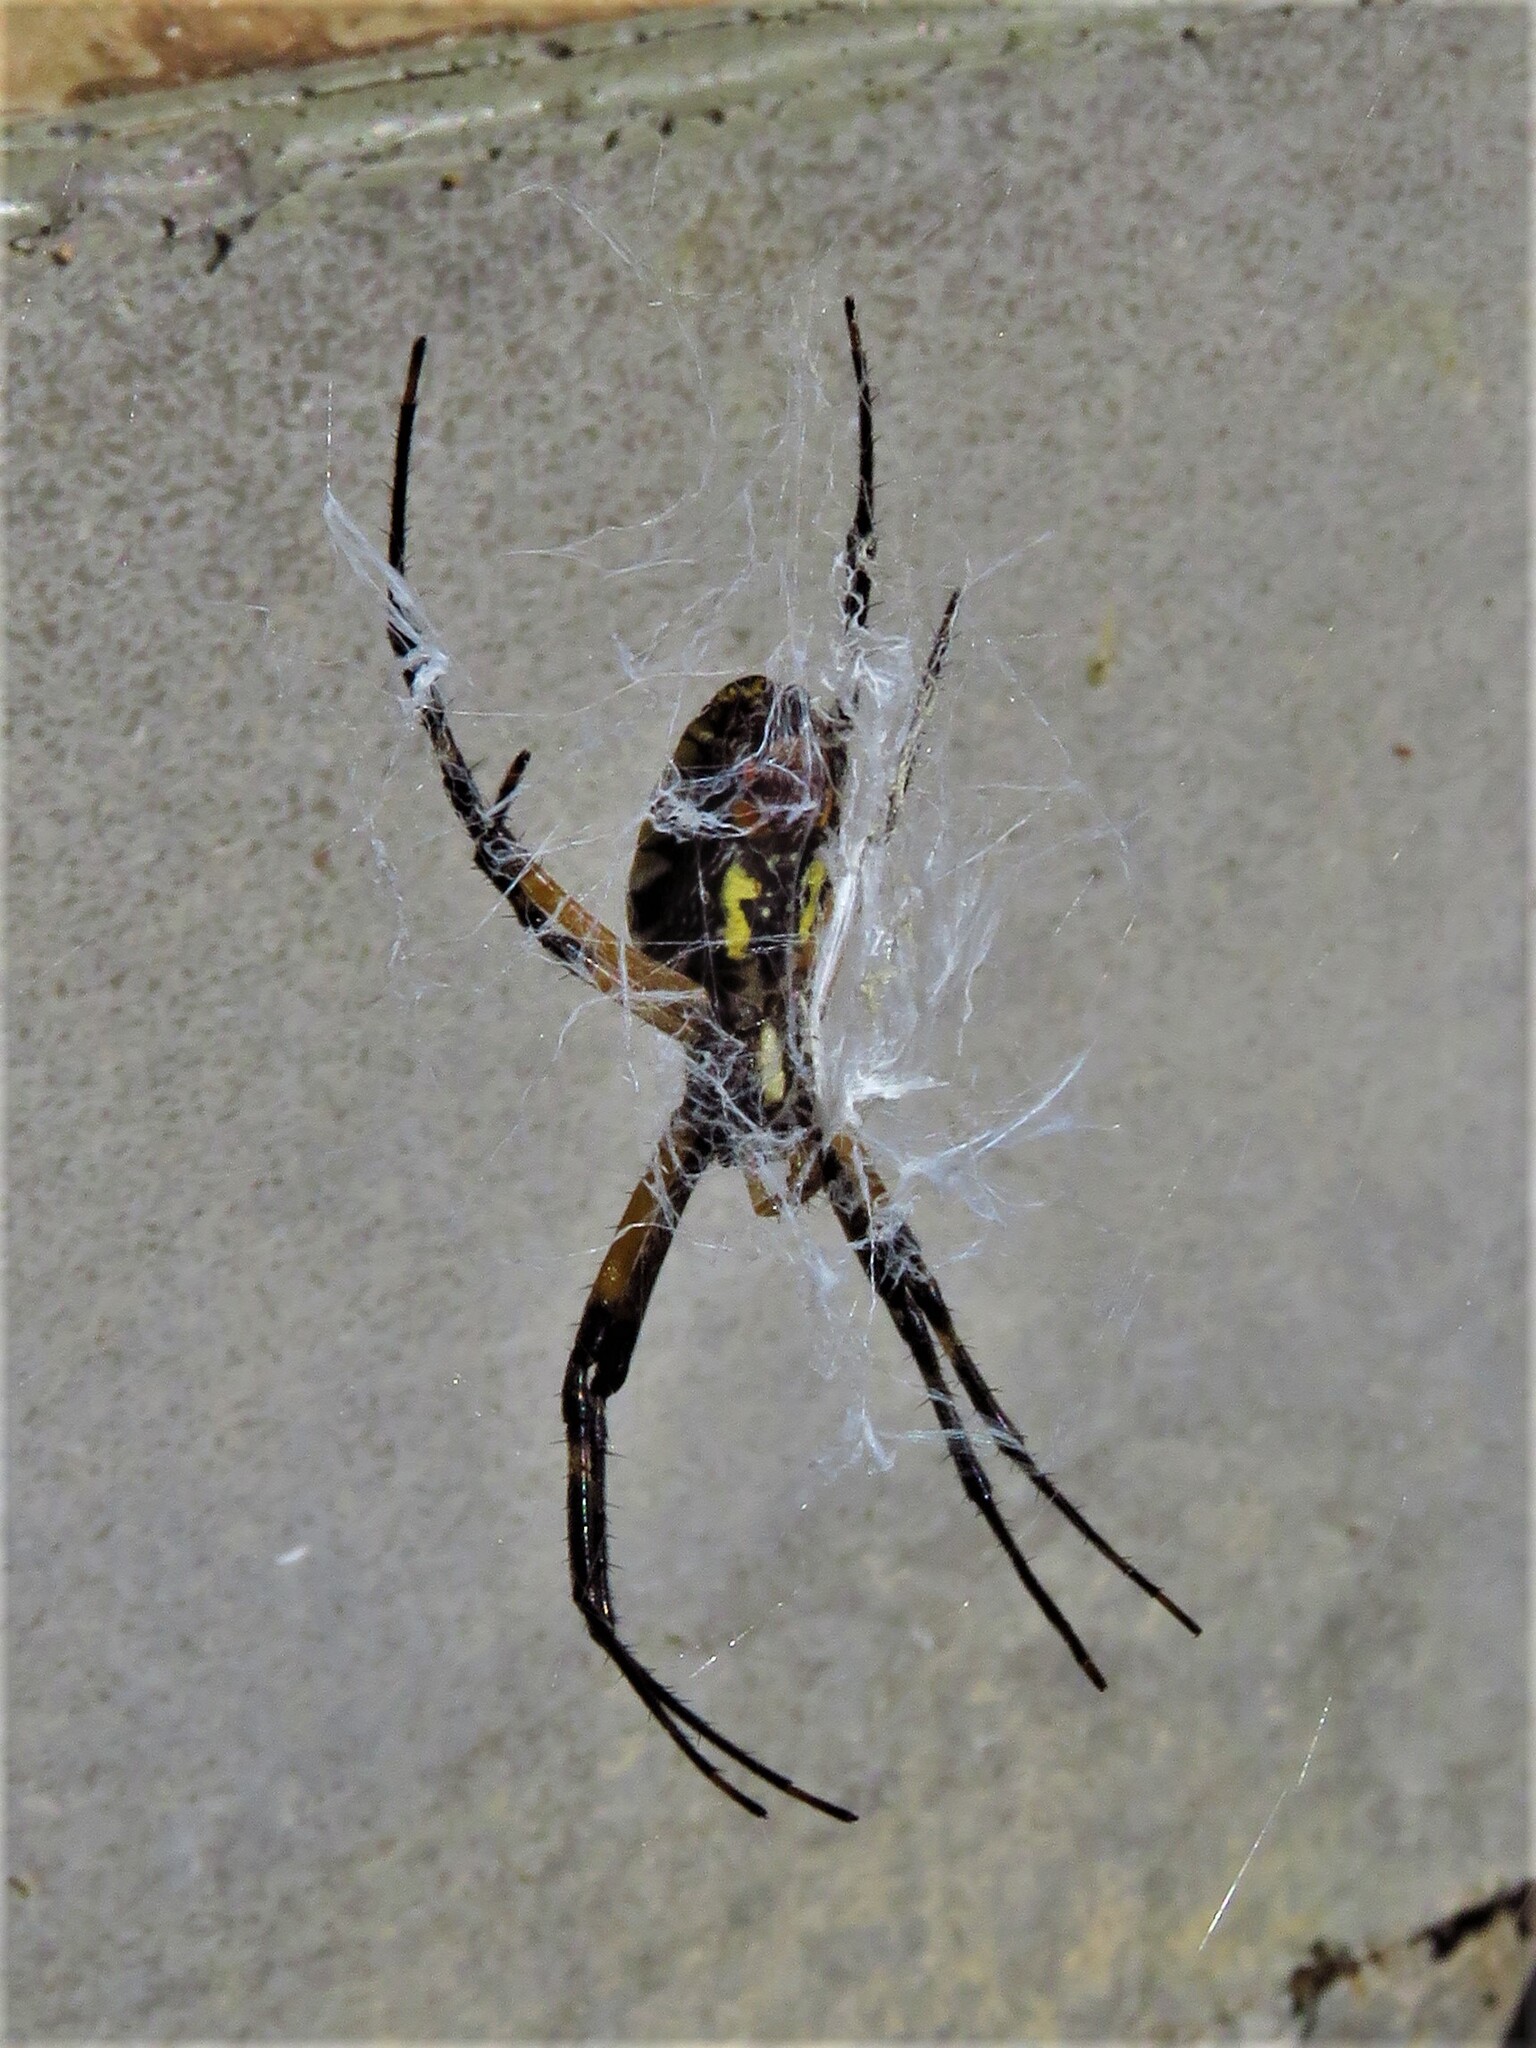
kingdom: Animalia
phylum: Arthropoda
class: Arachnida
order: Araneae
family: Araneidae
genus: Argiope
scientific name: Argiope aurantia
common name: Orb weavers
